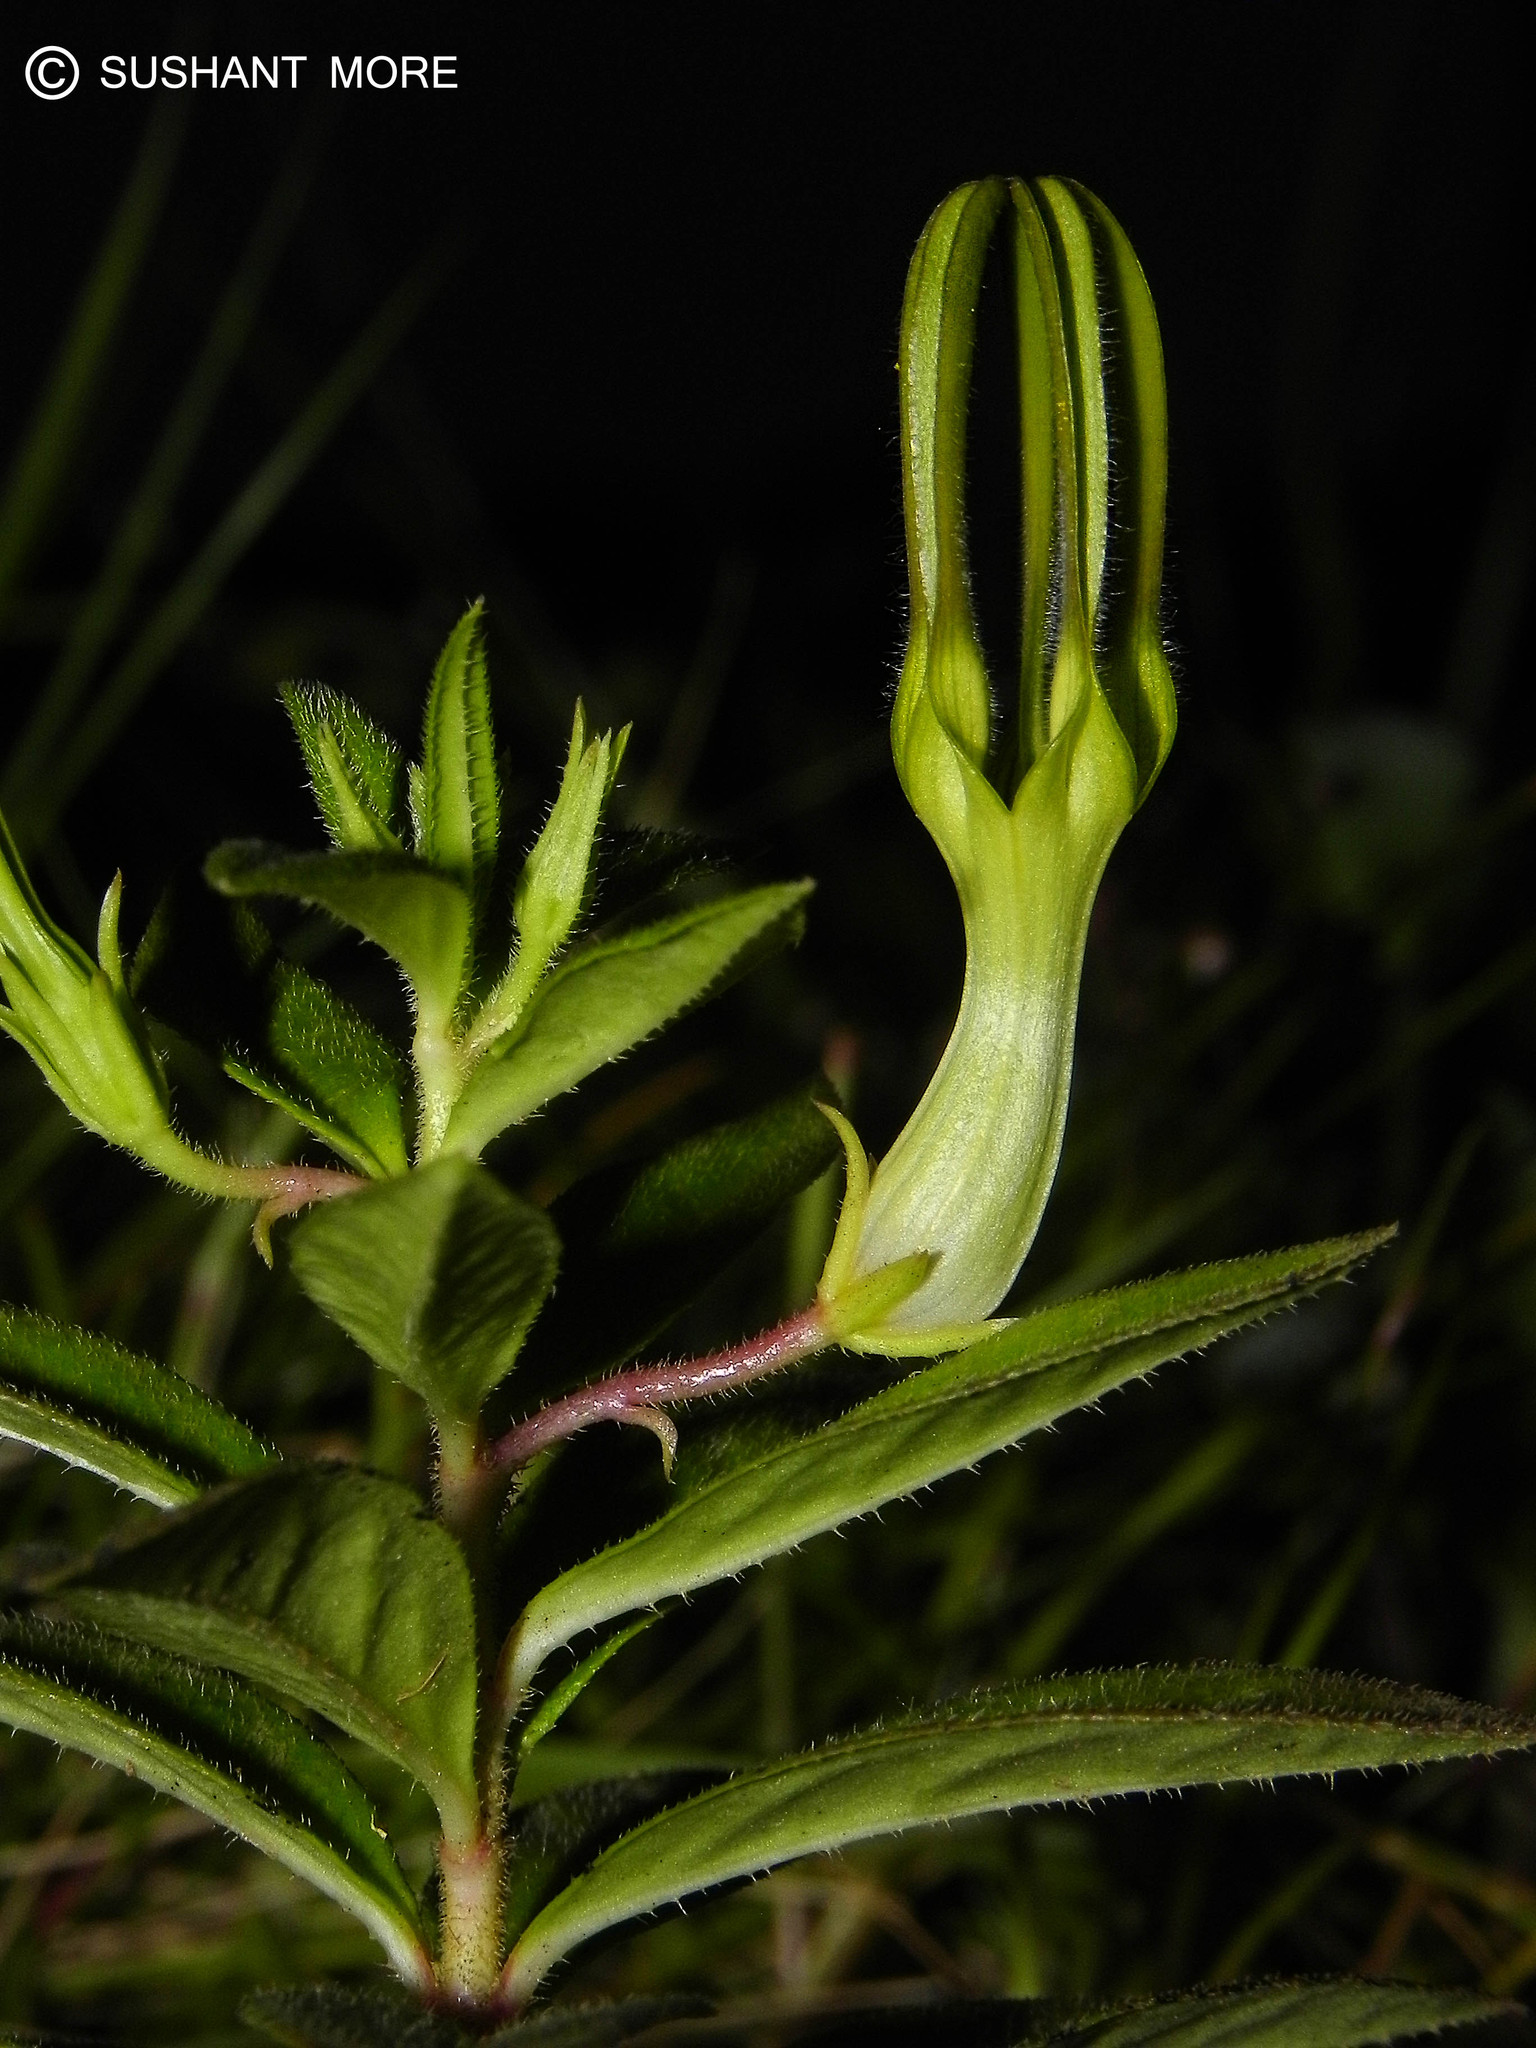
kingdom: Plantae
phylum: Tracheophyta
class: Magnoliopsida
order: Gentianales
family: Apocynaceae
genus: Ceropegia
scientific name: Ceropegia attenuata
